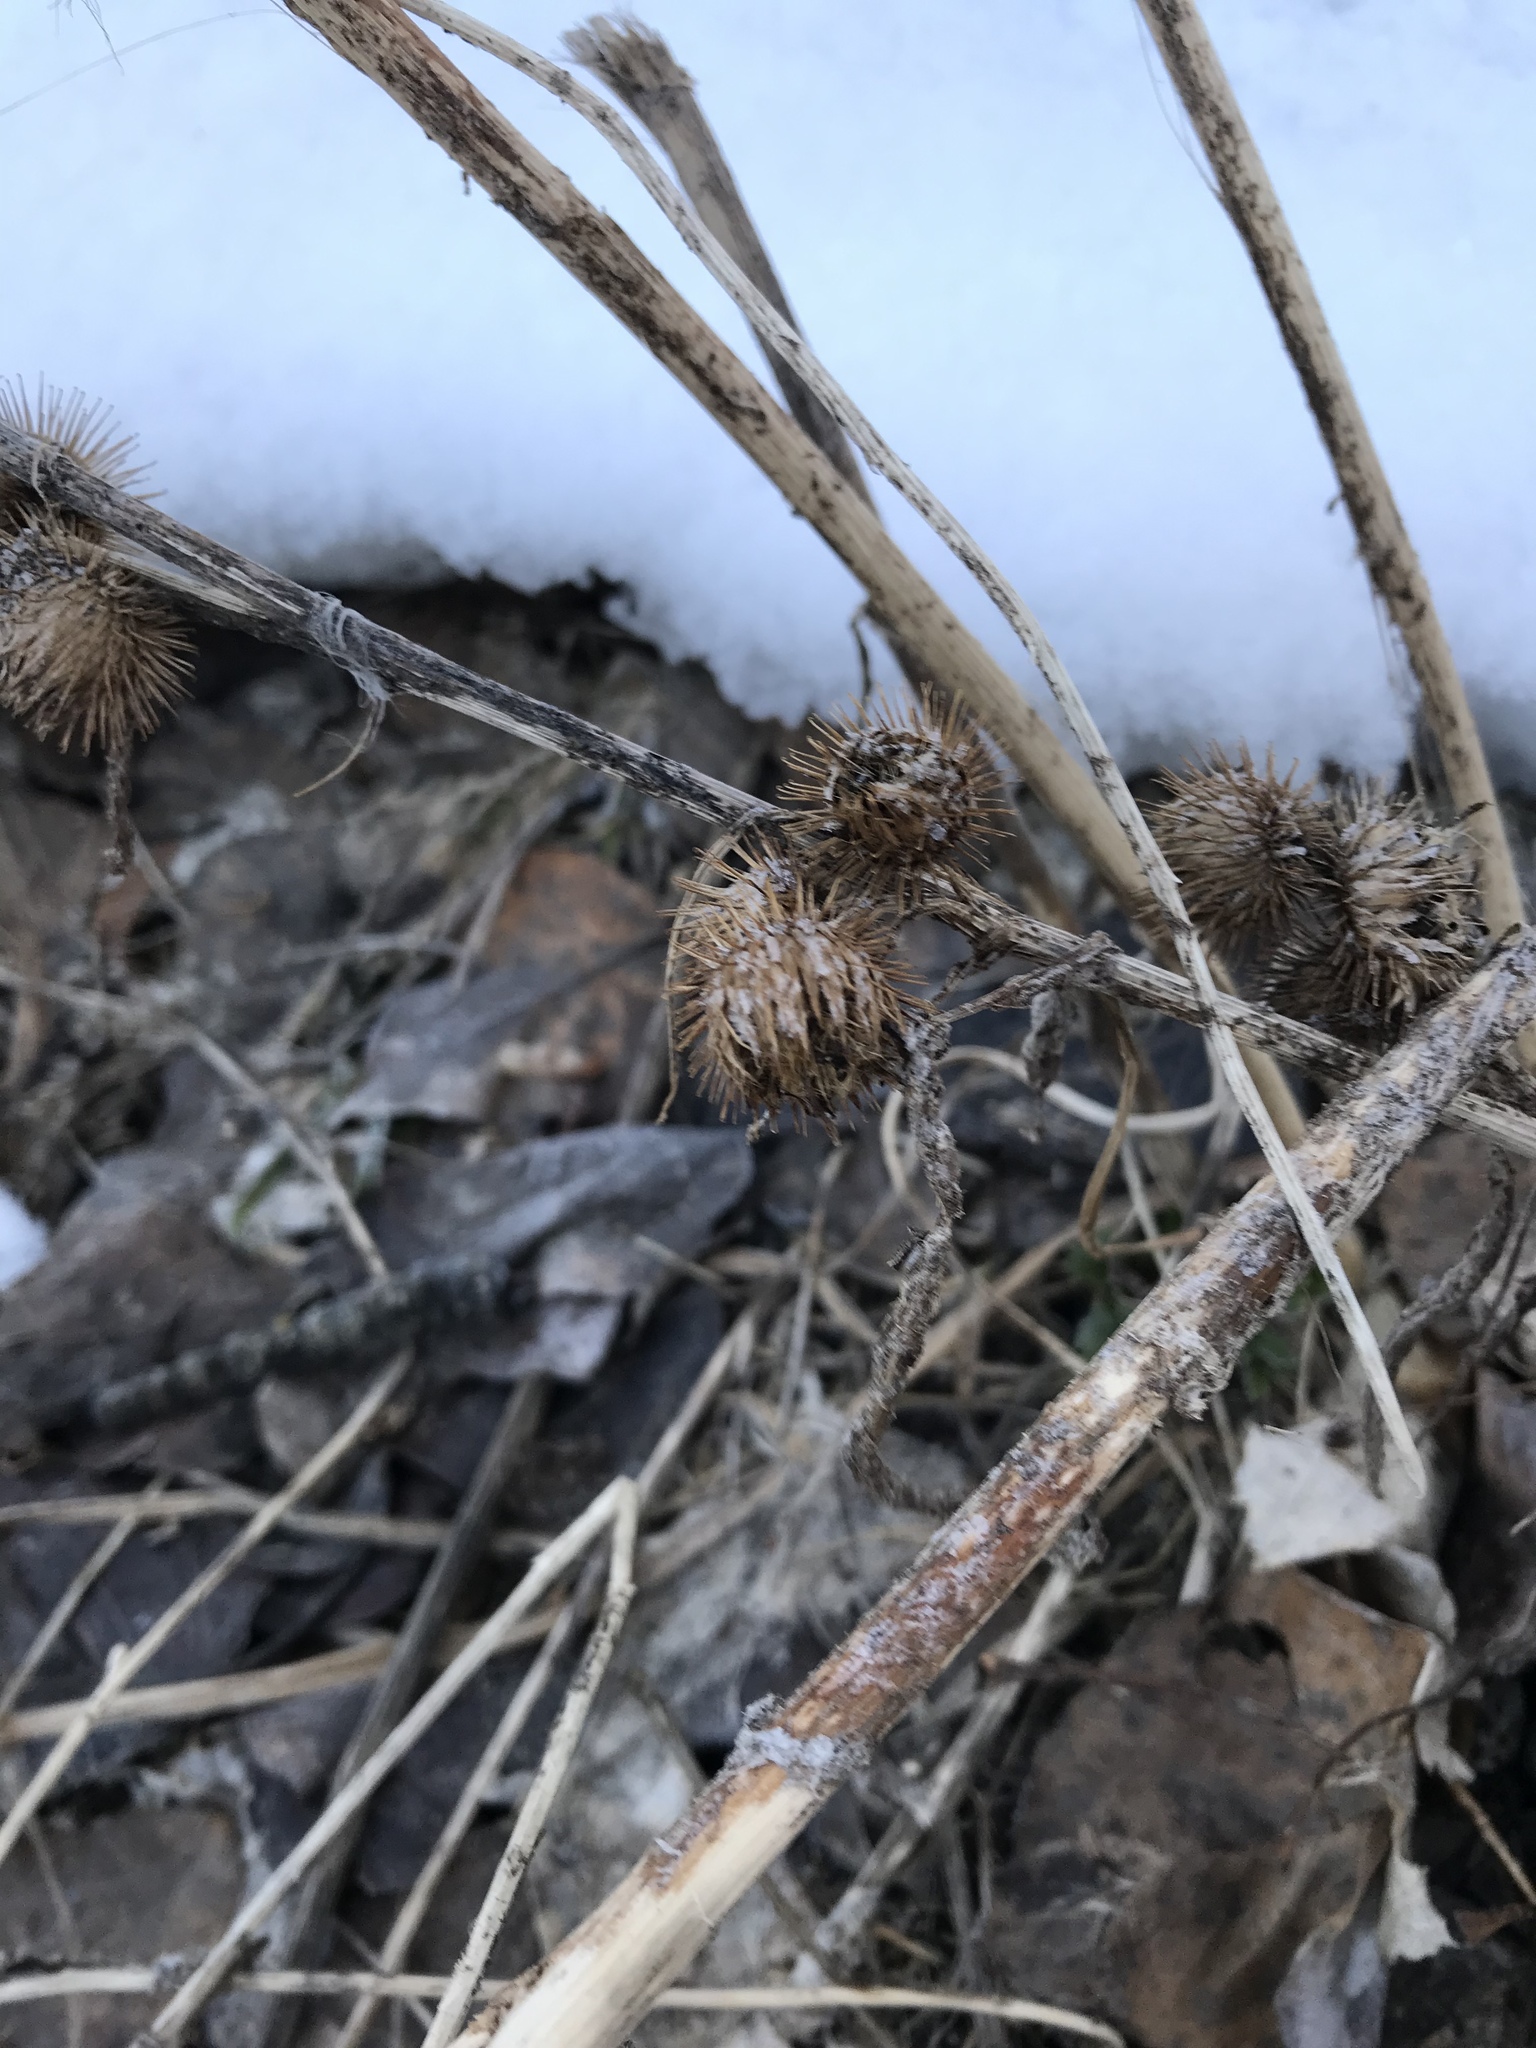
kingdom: Plantae
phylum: Tracheophyta
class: Magnoliopsida
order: Asterales
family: Asteraceae
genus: Arctium
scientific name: Arctium minus
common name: Lesser burdock
